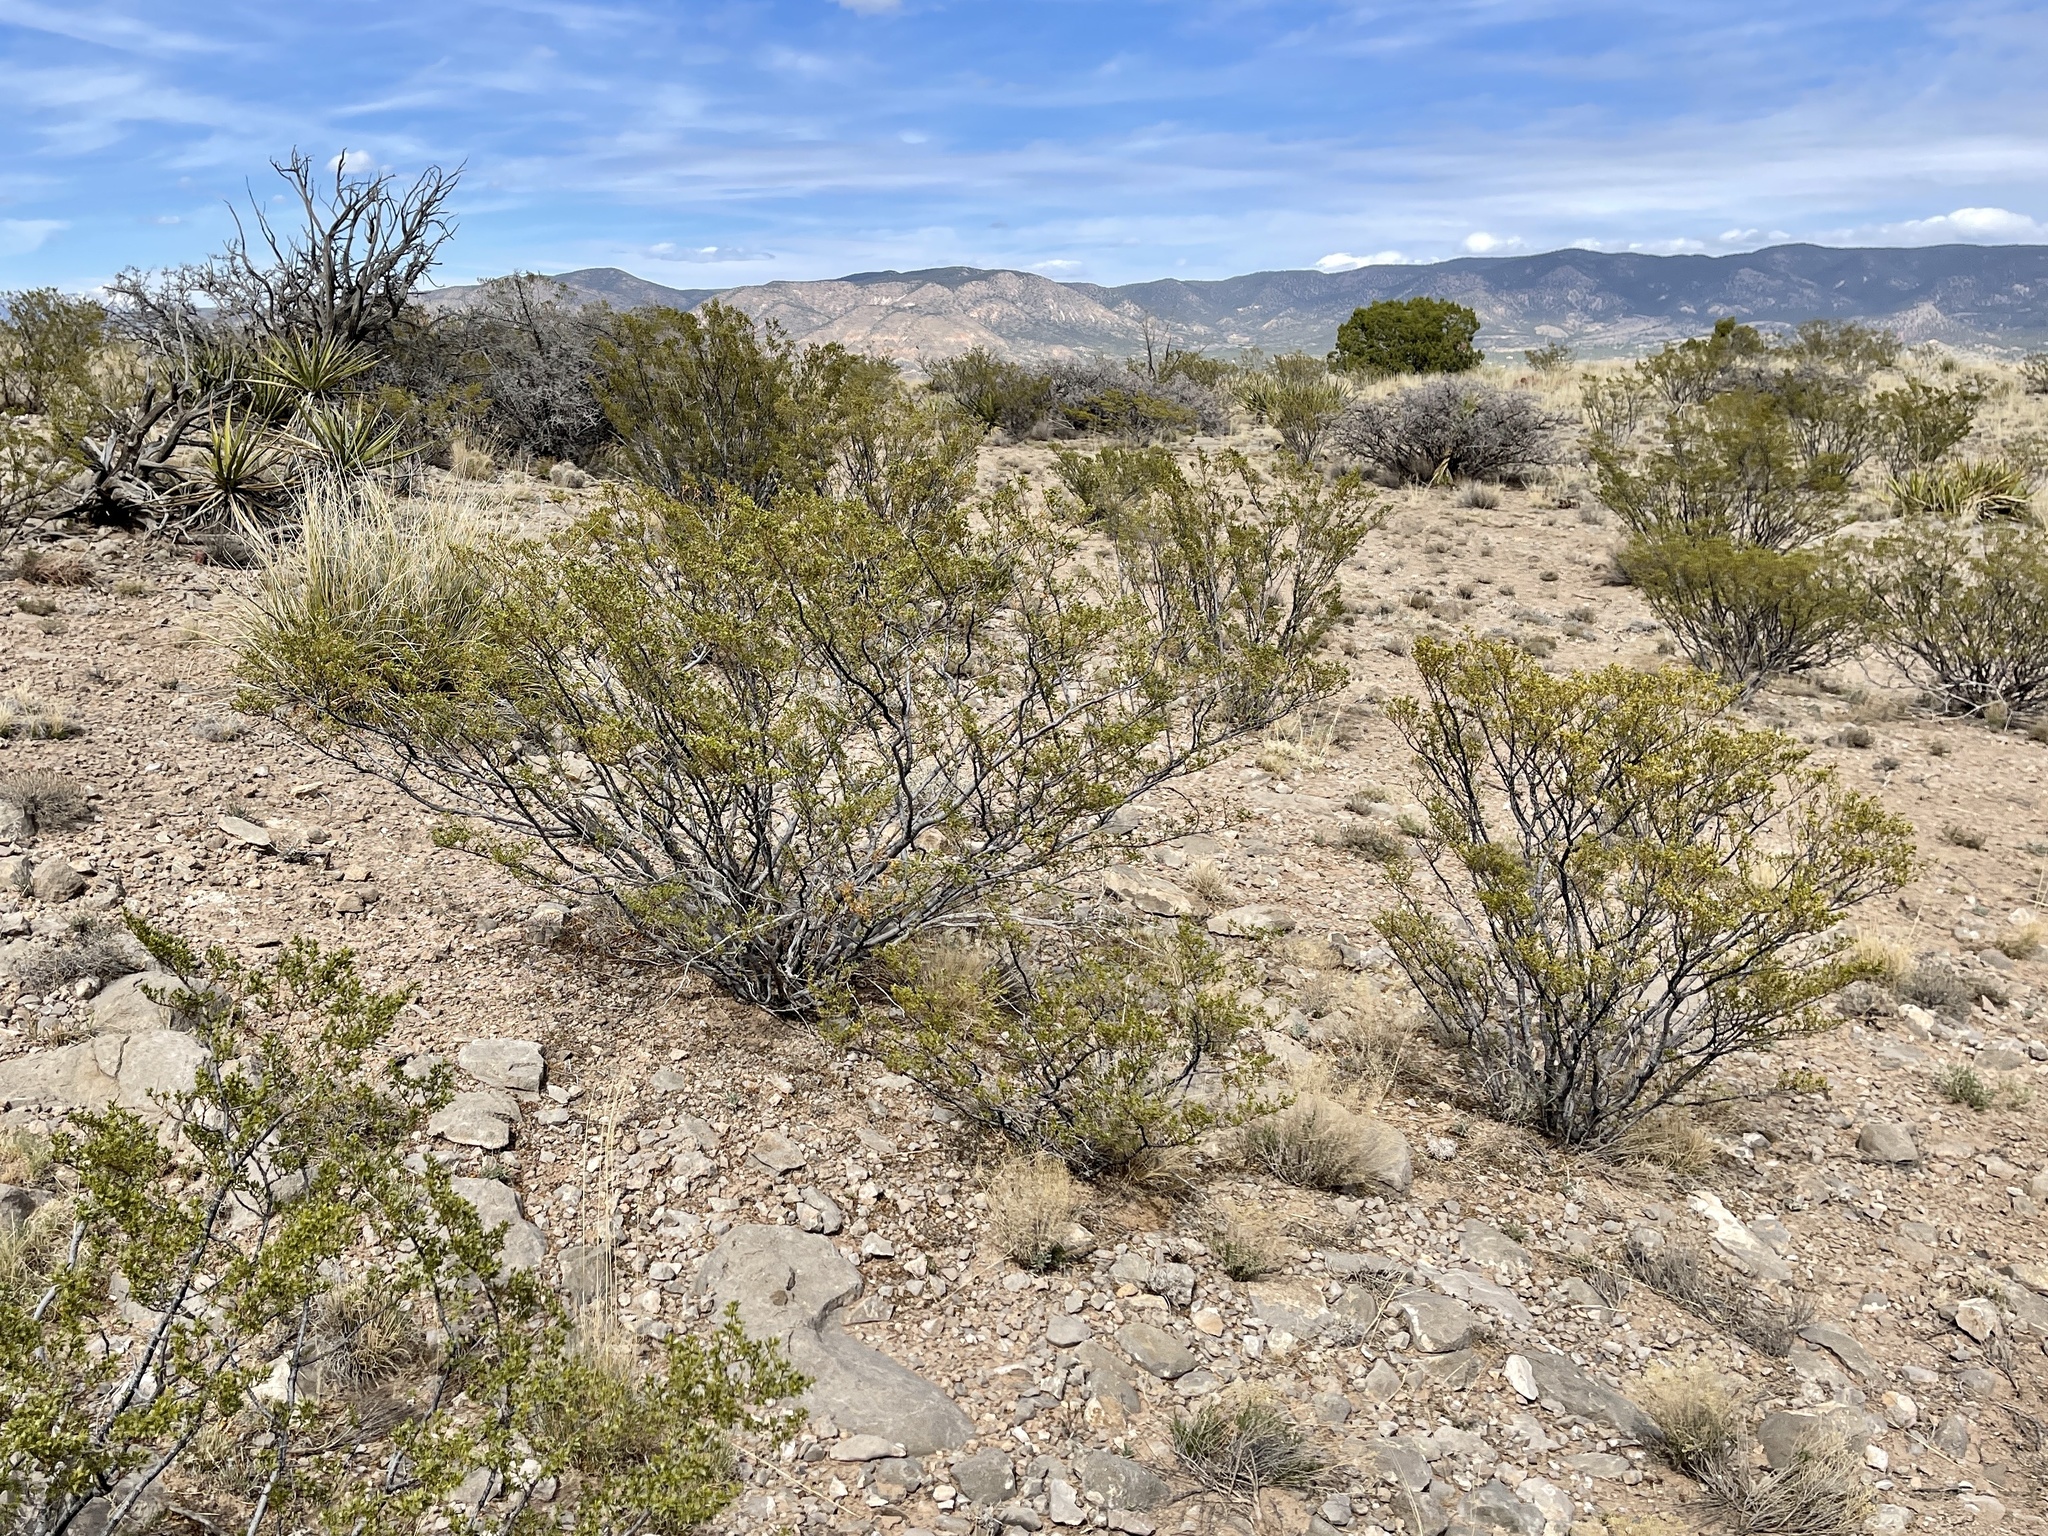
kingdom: Plantae
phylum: Tracheophyta
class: Magnoliopsida
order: Zygophyllales
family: Zygophyllaceae
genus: Larrea
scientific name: Larrea tridentata
